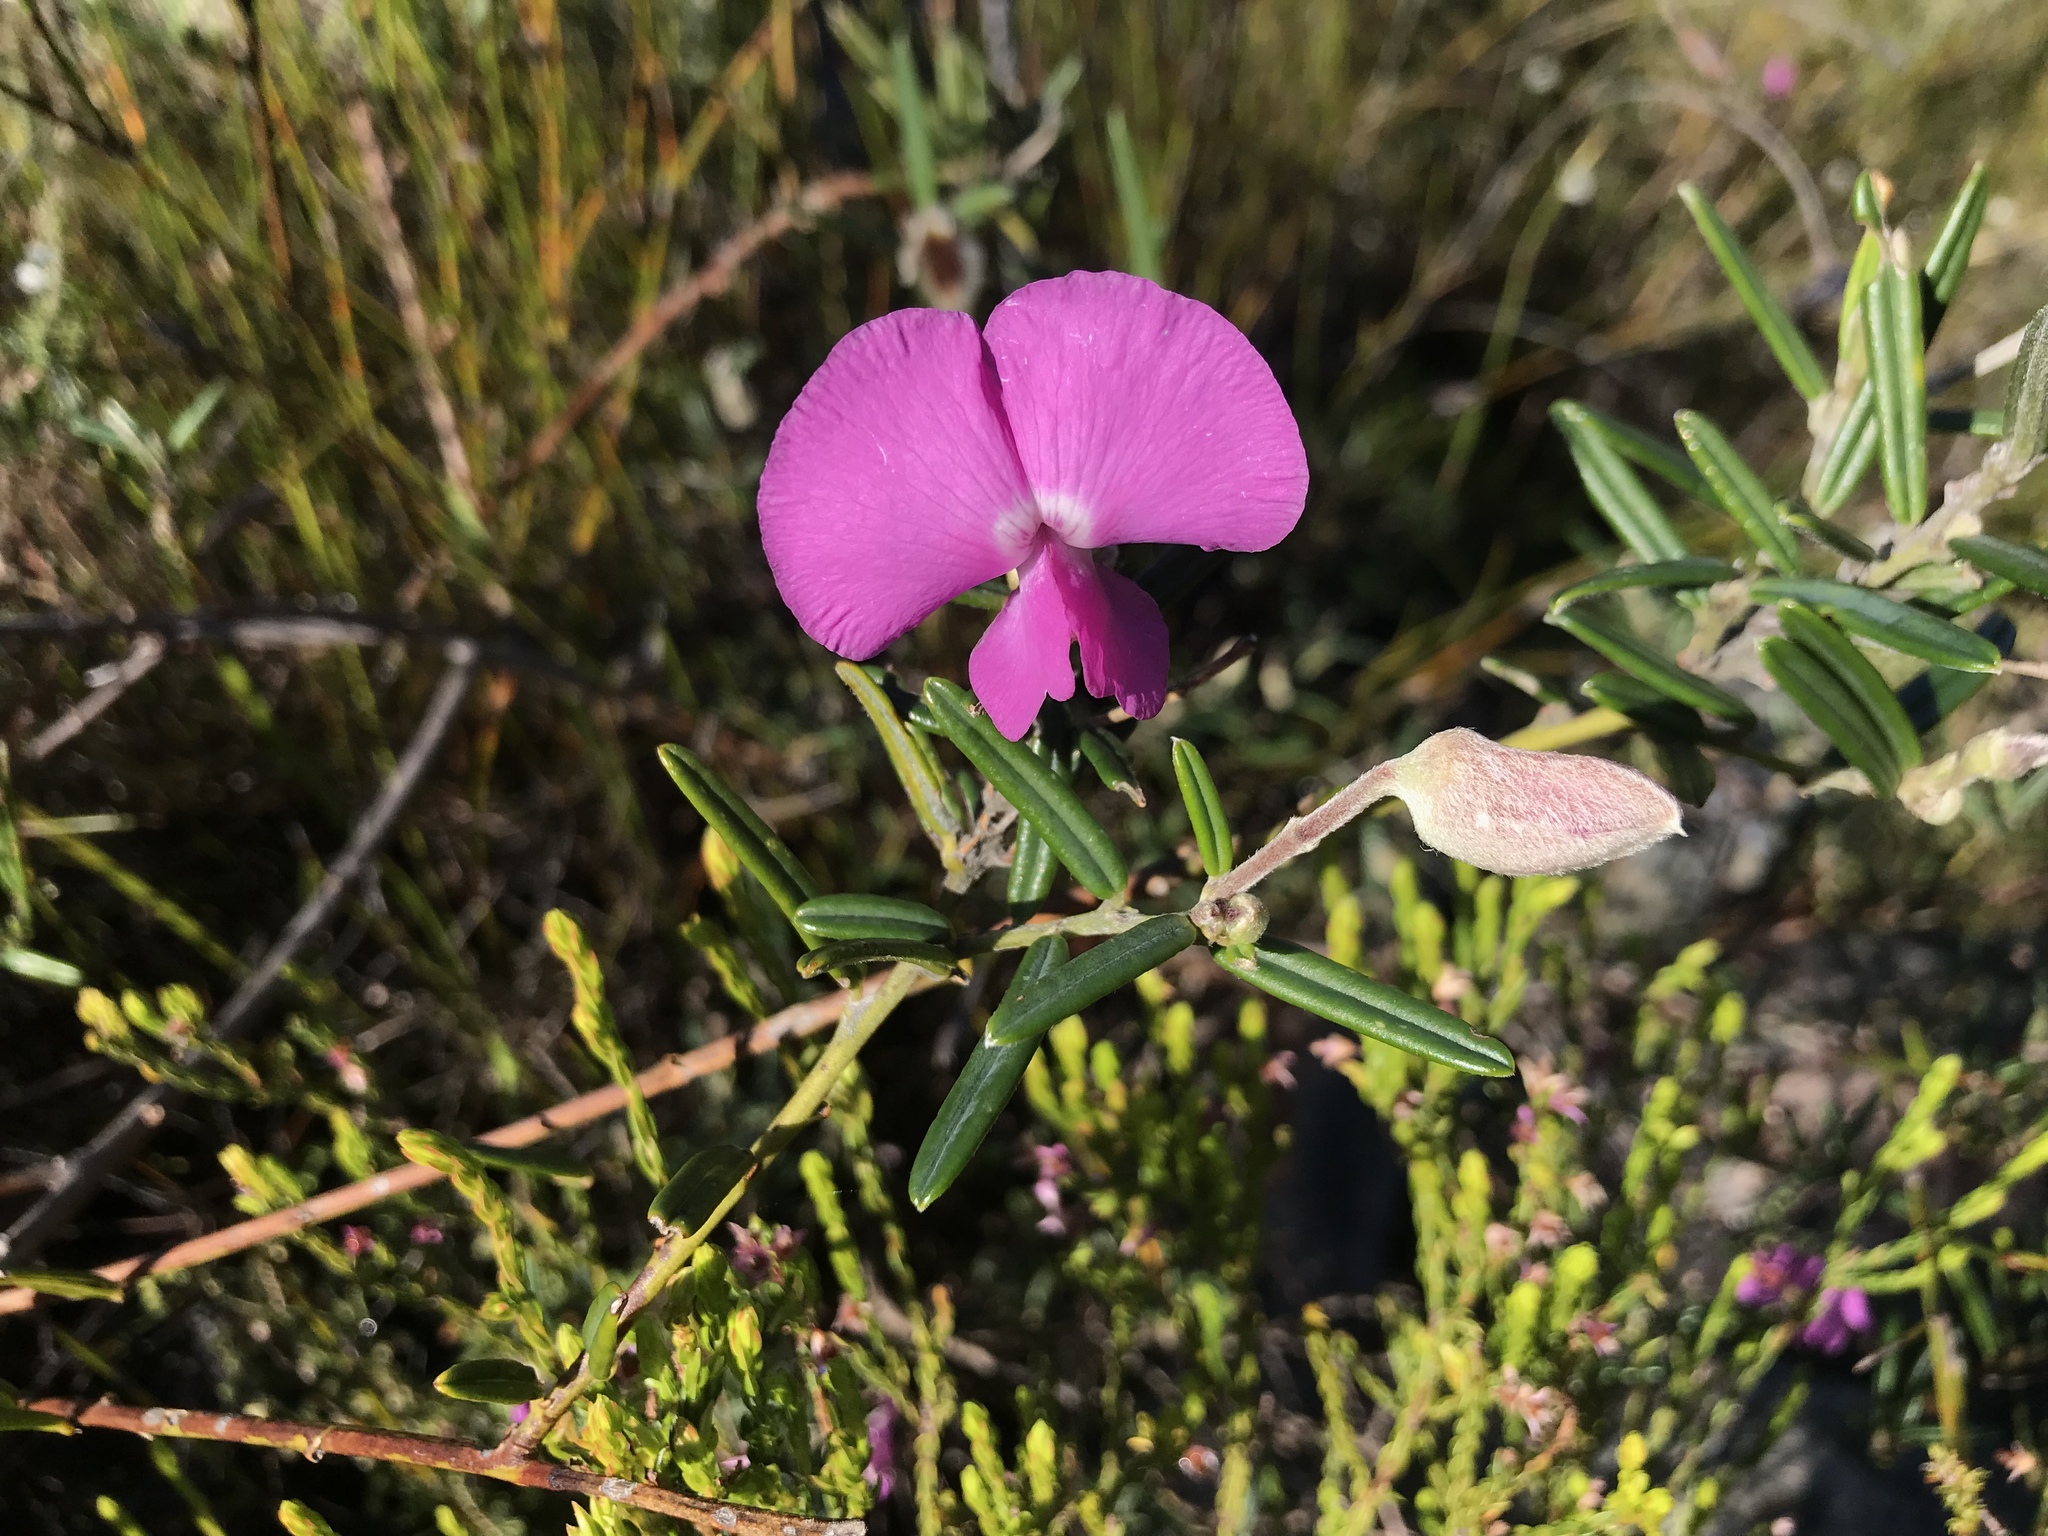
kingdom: Plantae
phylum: Tracheophyta
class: Magnoliopsida
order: Fabales
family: Fabaceae
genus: Podalyria
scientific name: Podalyria oleifolia
